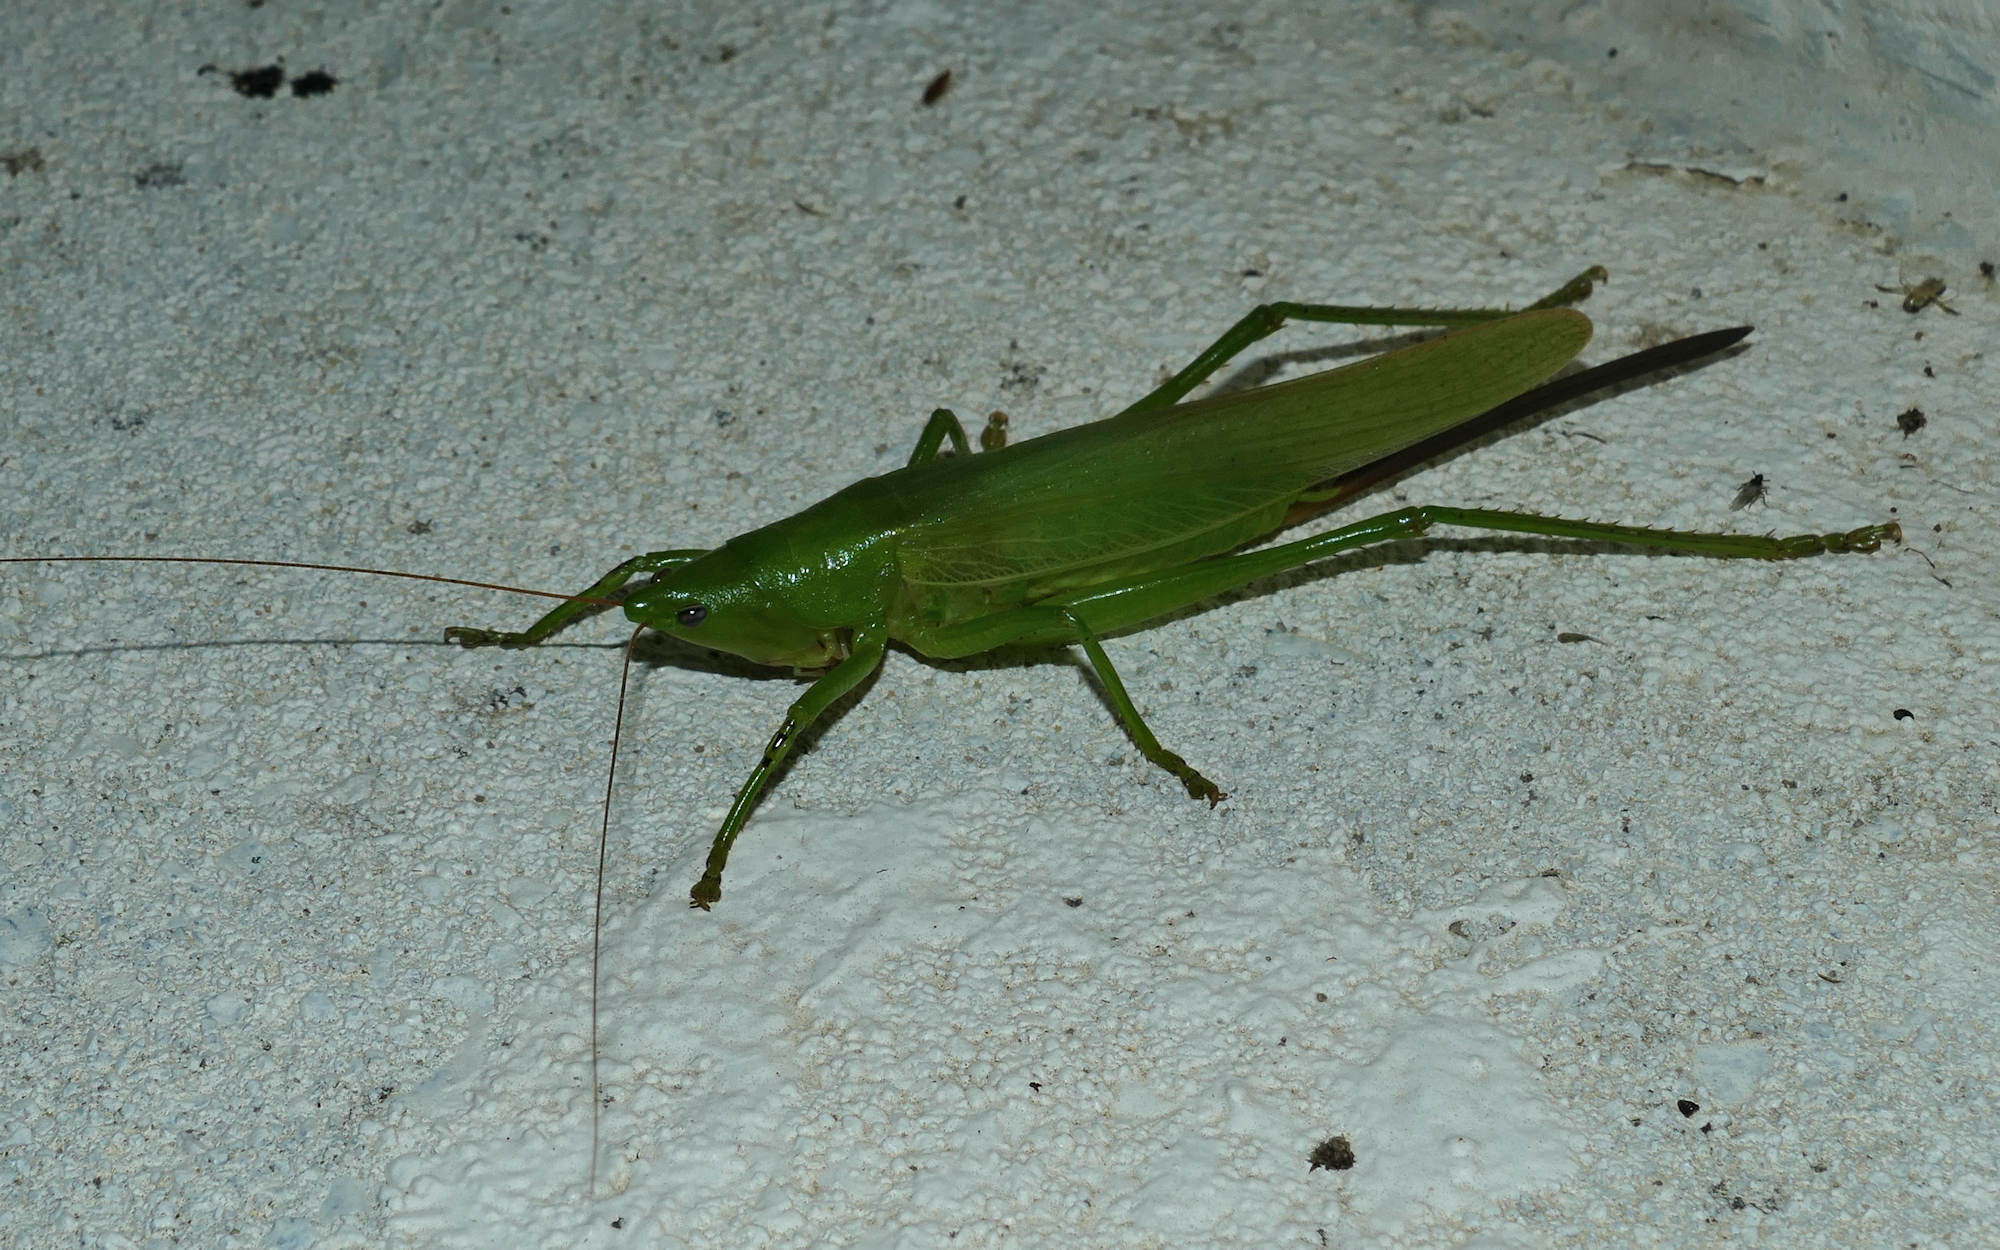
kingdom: Animalia
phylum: Arthropoda
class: Insecta
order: Orthoptera
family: Tettigoniidae
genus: Neoconocephalus
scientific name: Neoconocephalus triops
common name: Broad-tipped conehead
